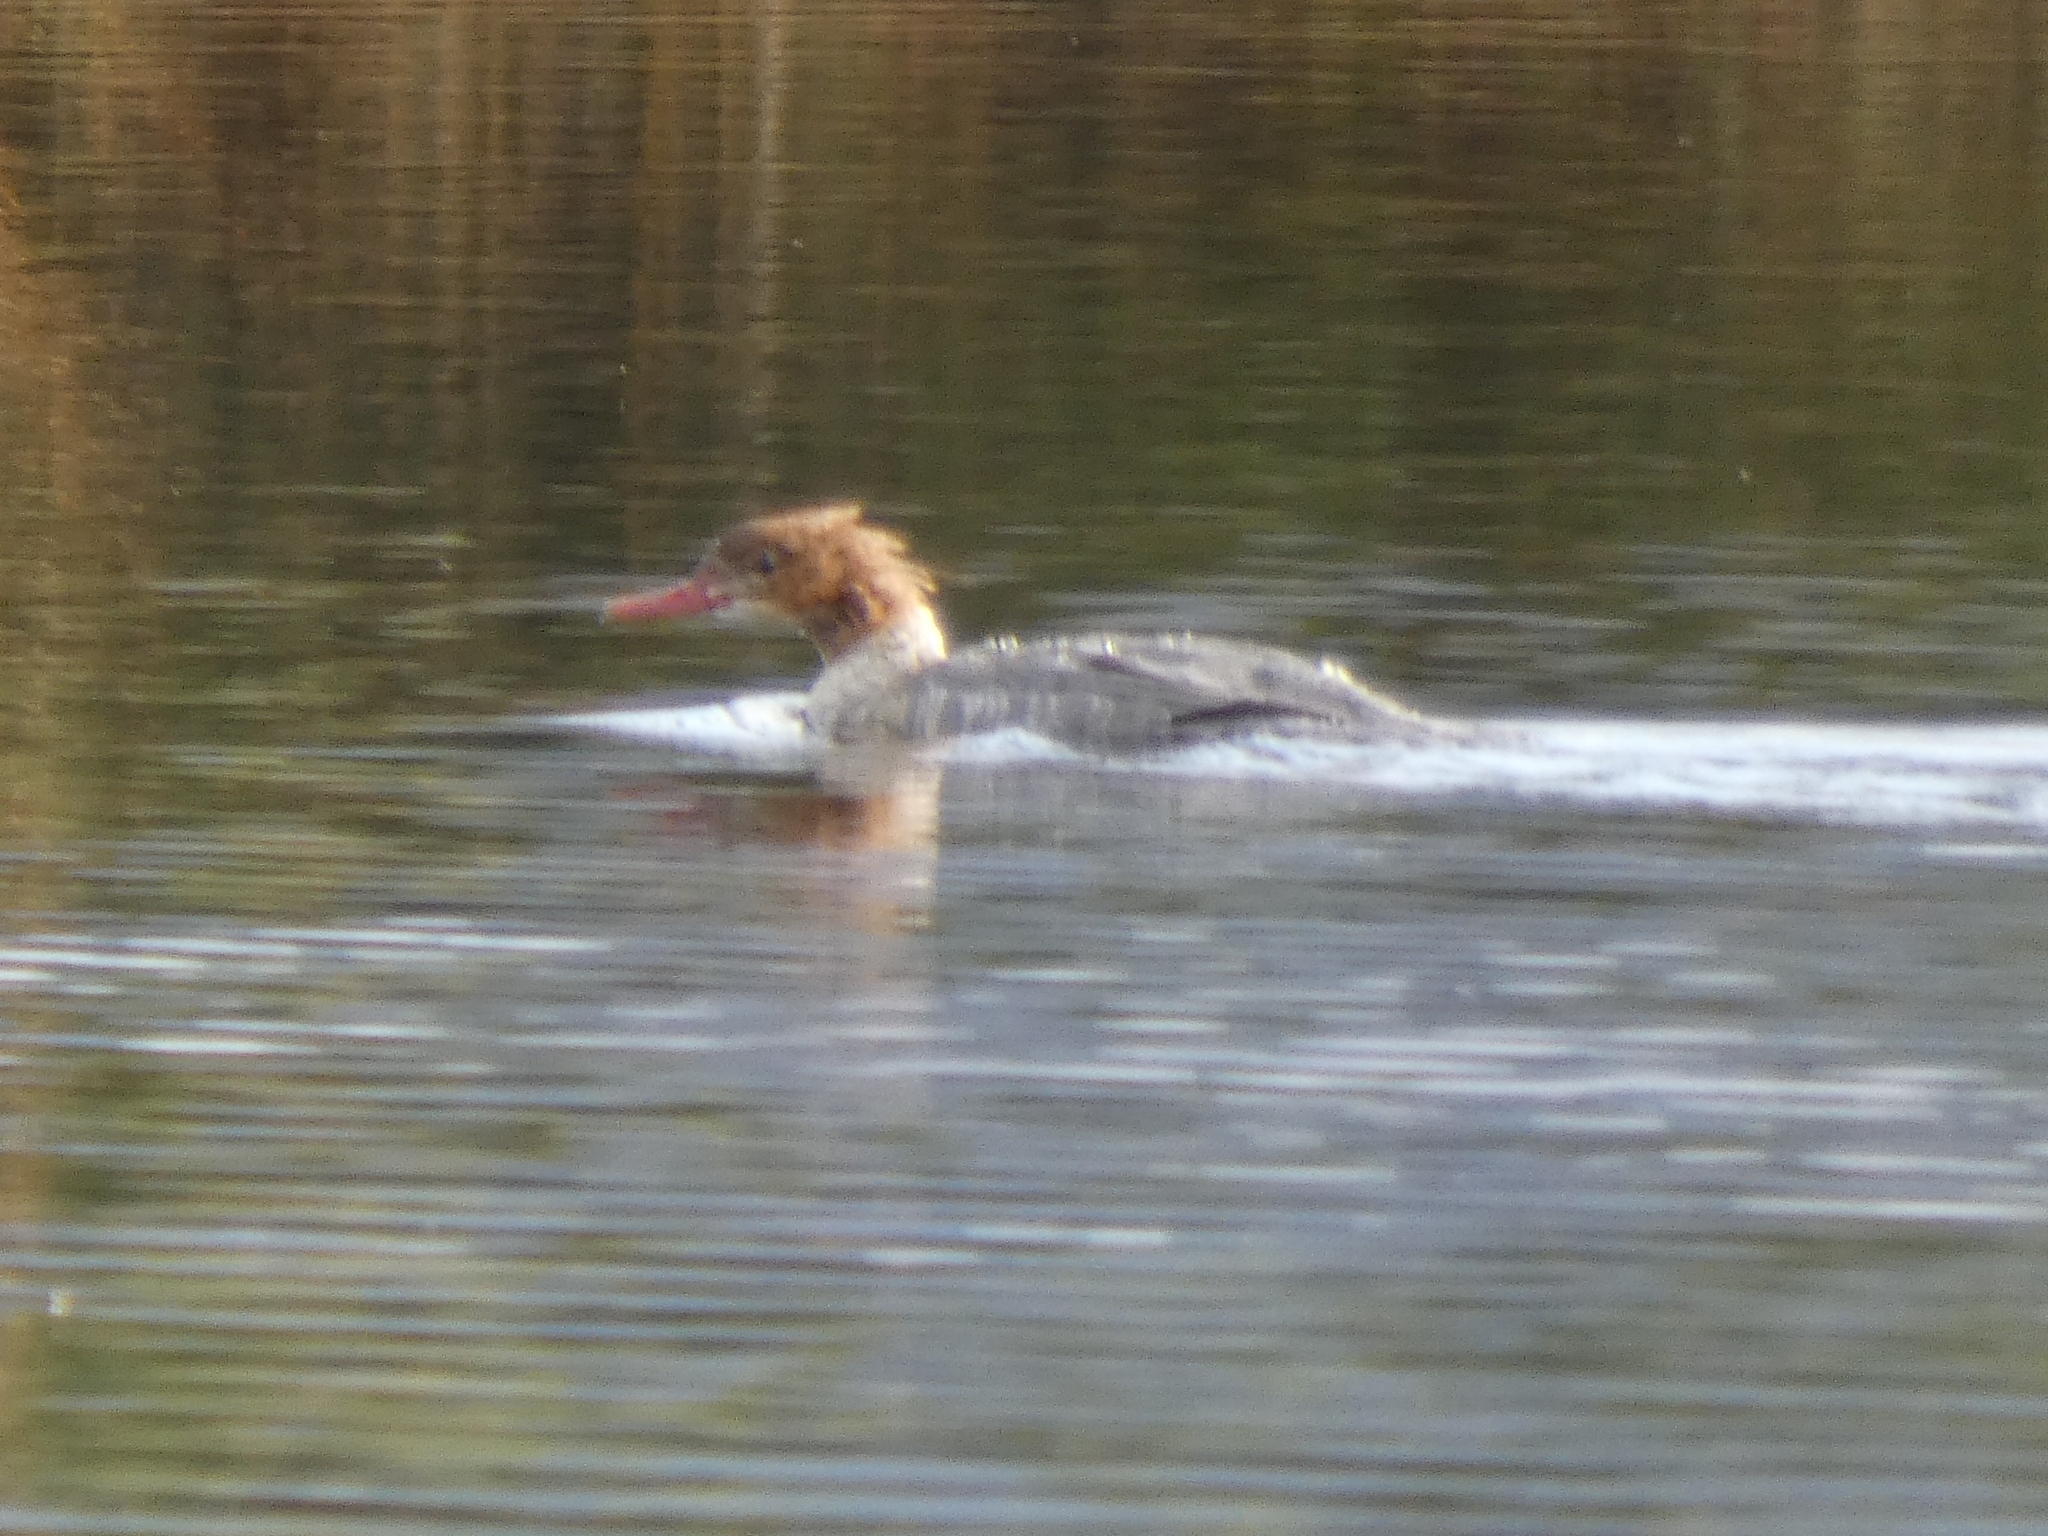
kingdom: Animalia
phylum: Chordata
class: Aves
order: Anseriformes
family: Anatidae
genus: Mergus
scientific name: Mergus merganser
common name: Common merganser
